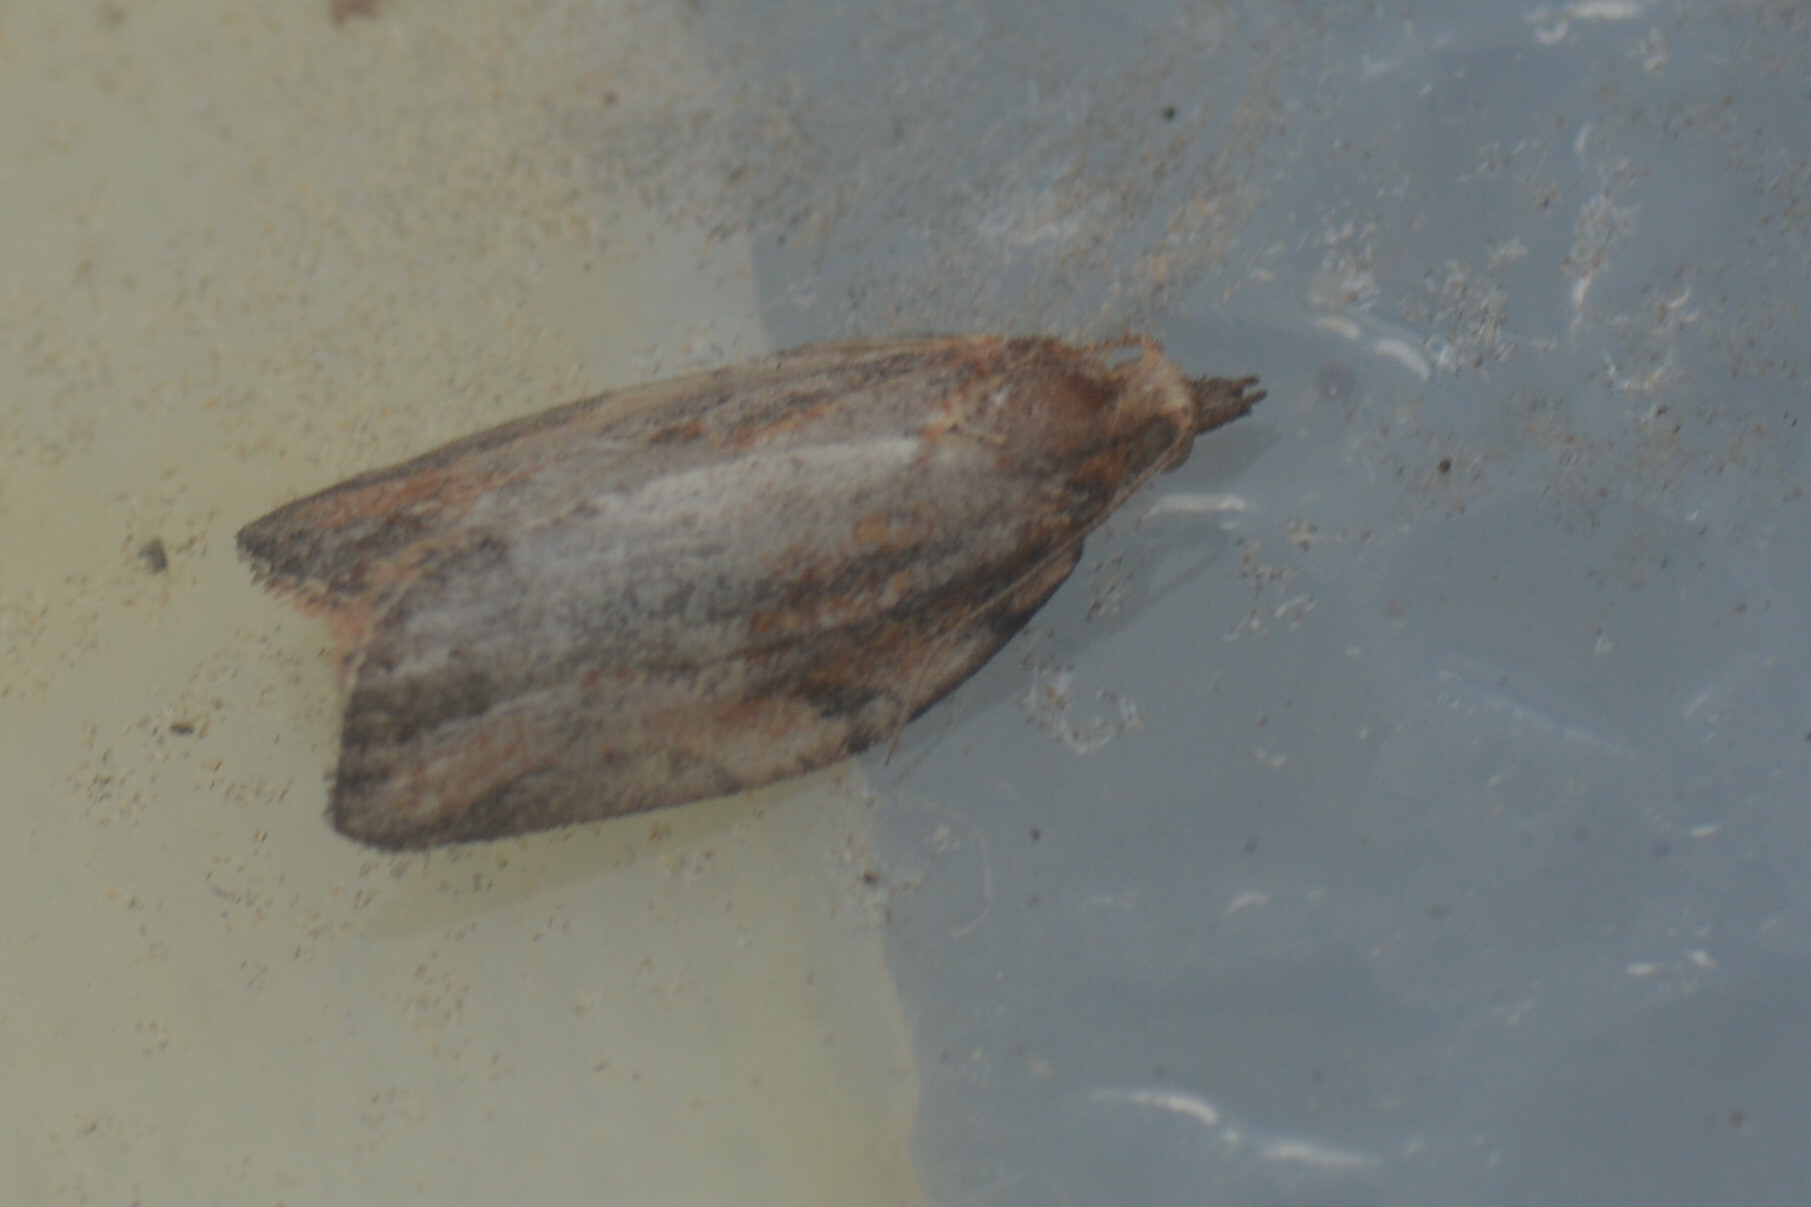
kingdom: Animalia
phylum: Arthropoda
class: Insecta
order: Lepidoptera
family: Tortricidae
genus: Epiphyas
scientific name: Epiphyas postvittana
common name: Light brown apple moth
